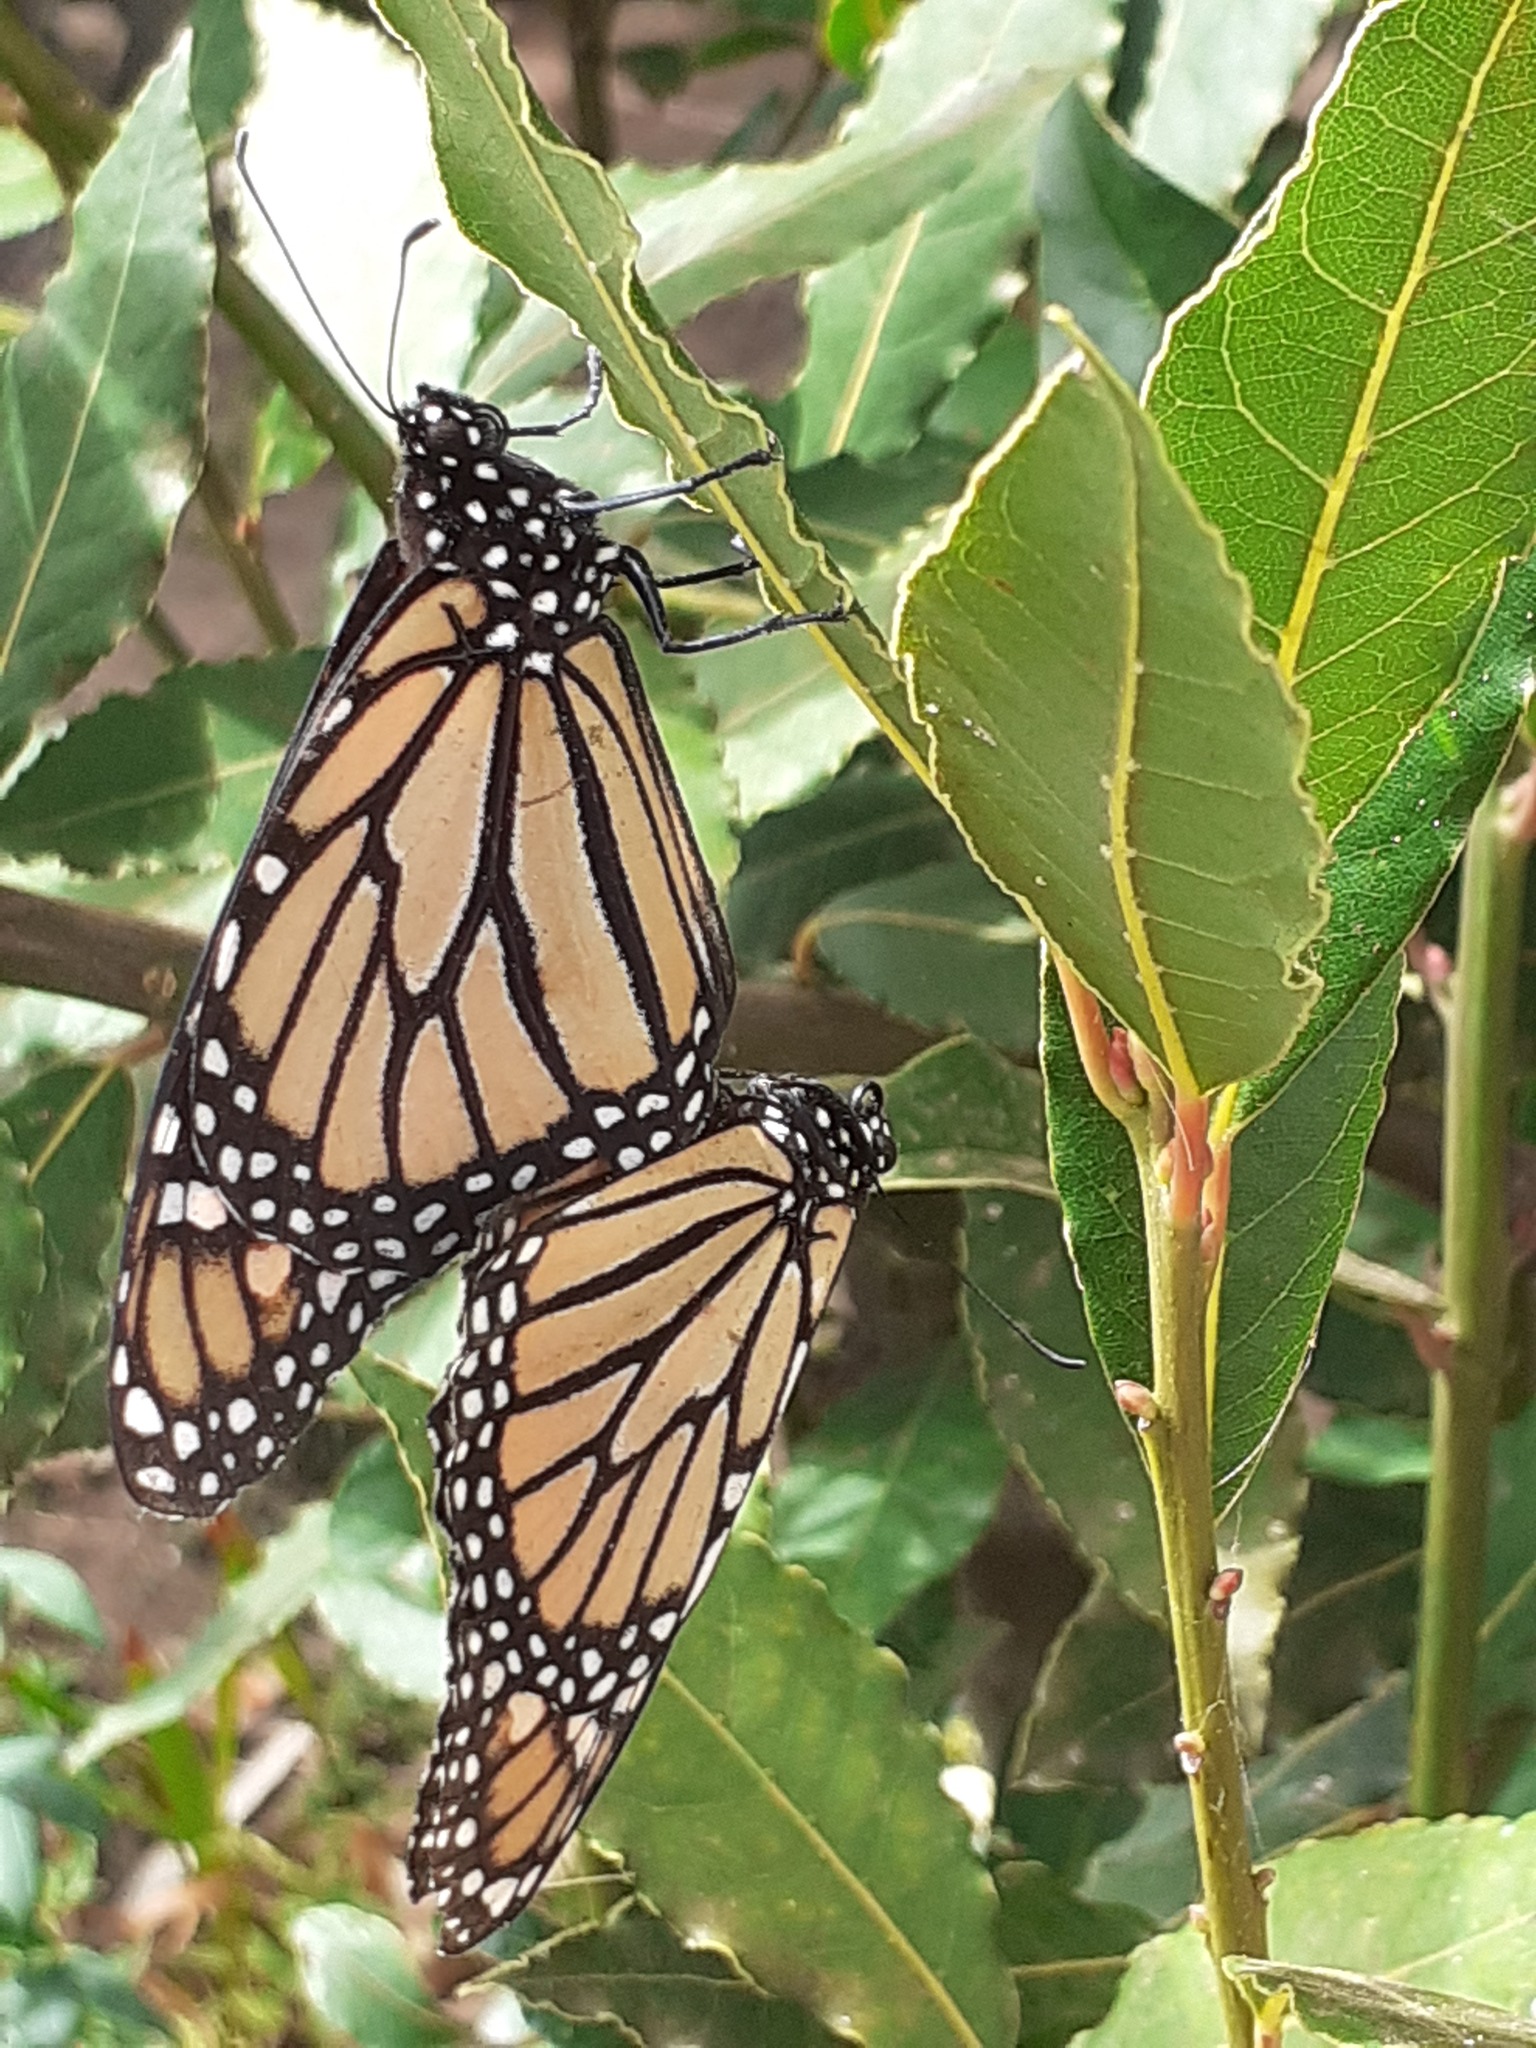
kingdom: Animalia
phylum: Arthropoda
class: Insecta
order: Lepidoptera
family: Nymphalidae
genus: Danaus
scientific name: Danaus plexippus
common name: Monarch
